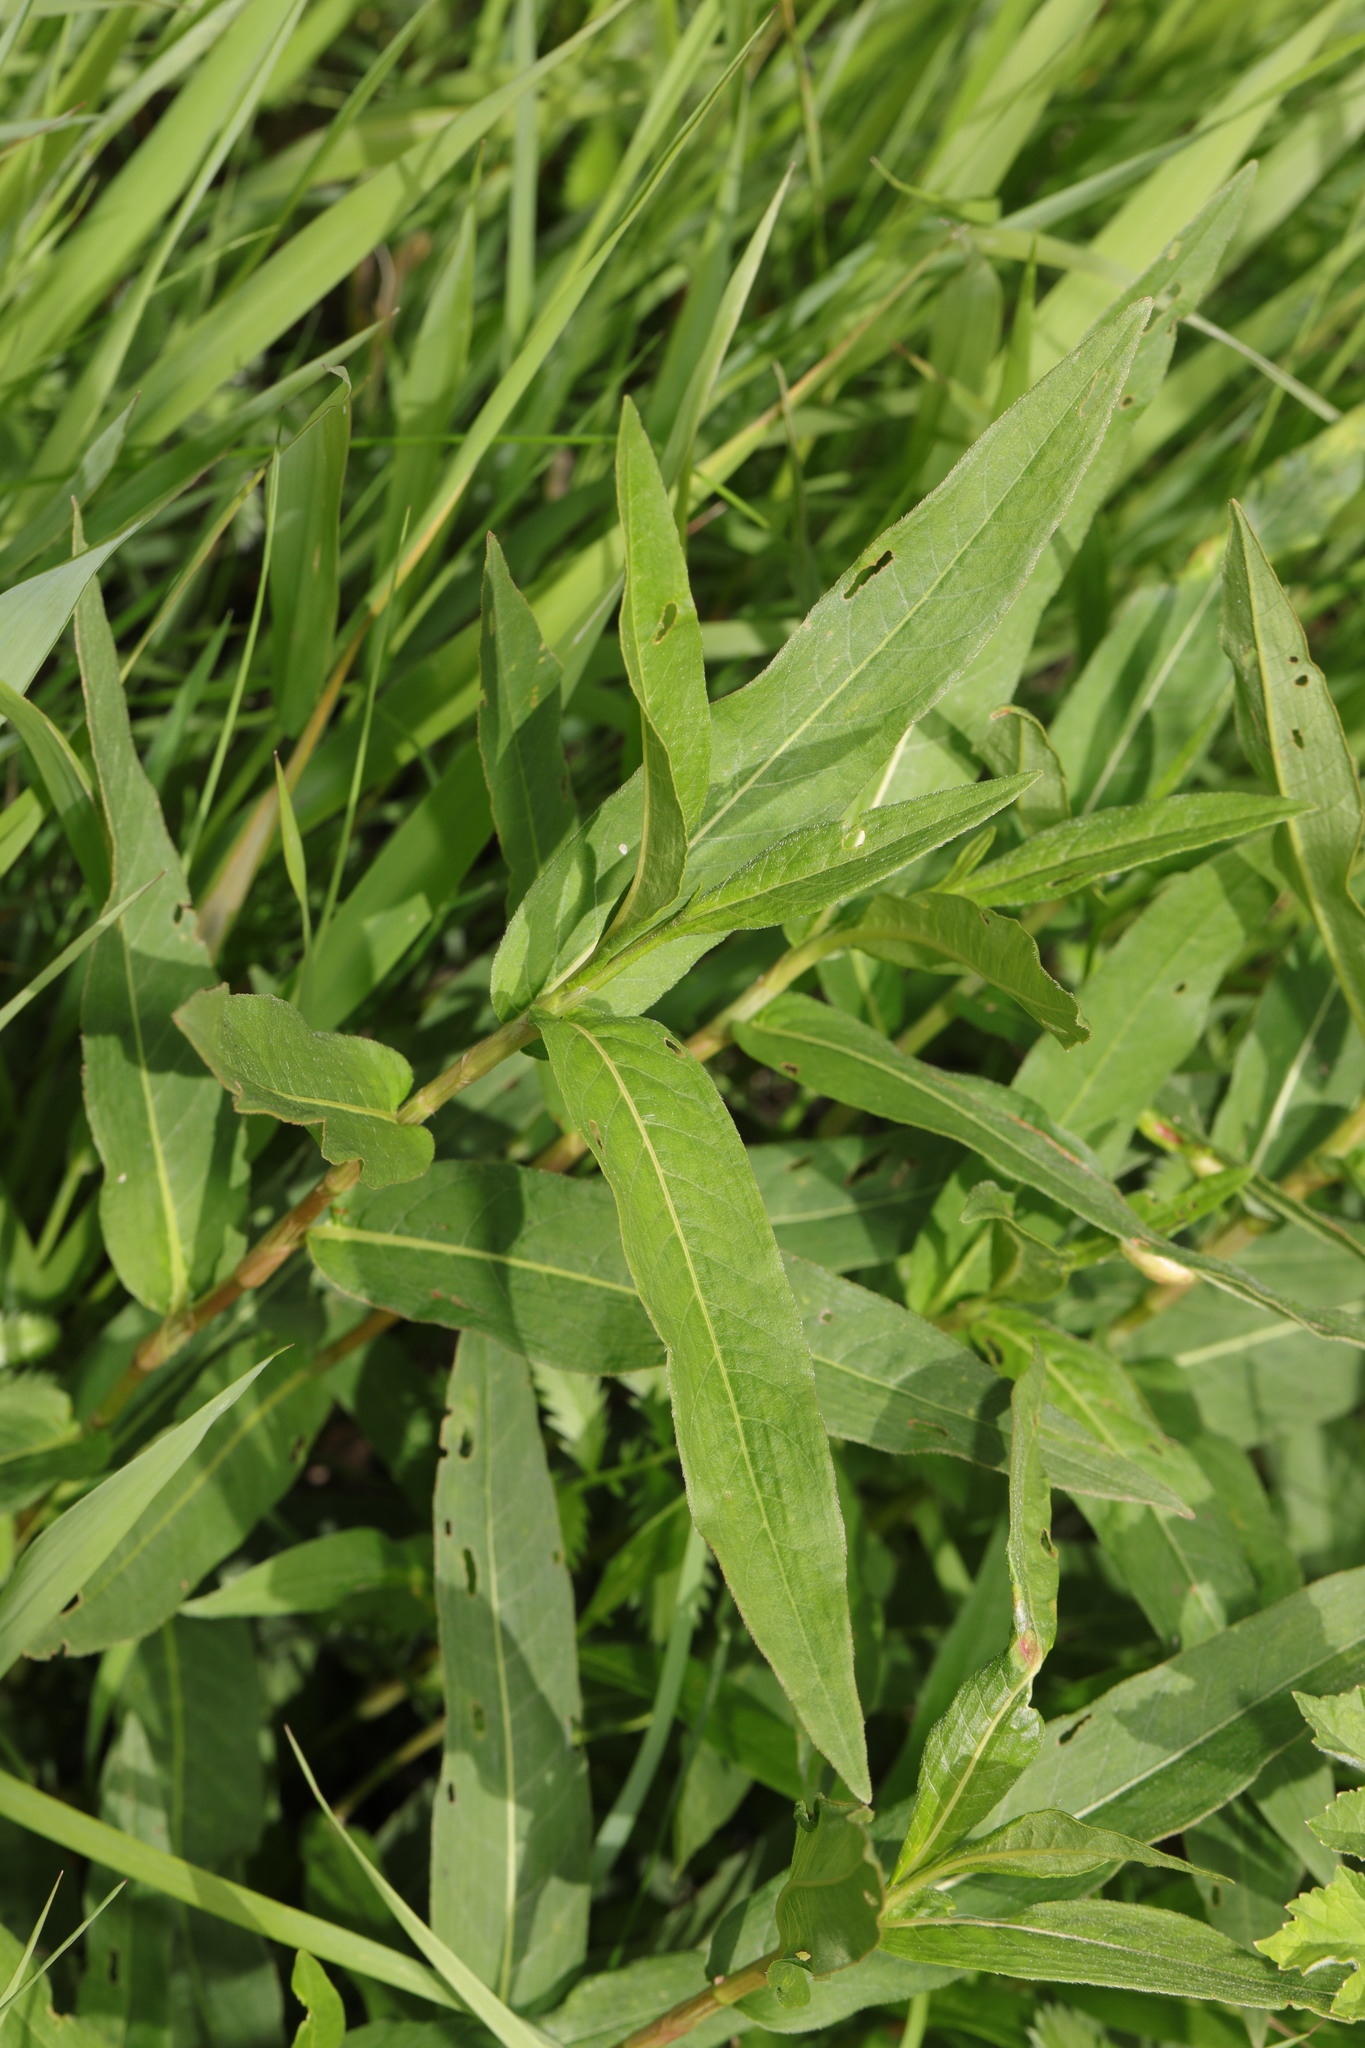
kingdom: Plantae
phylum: Tracheophyta
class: Magnoliopsida
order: Caryophyllales
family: Polygonaceae
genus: Persicaria
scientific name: Persicaria amphibia
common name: Amphibious bistort
